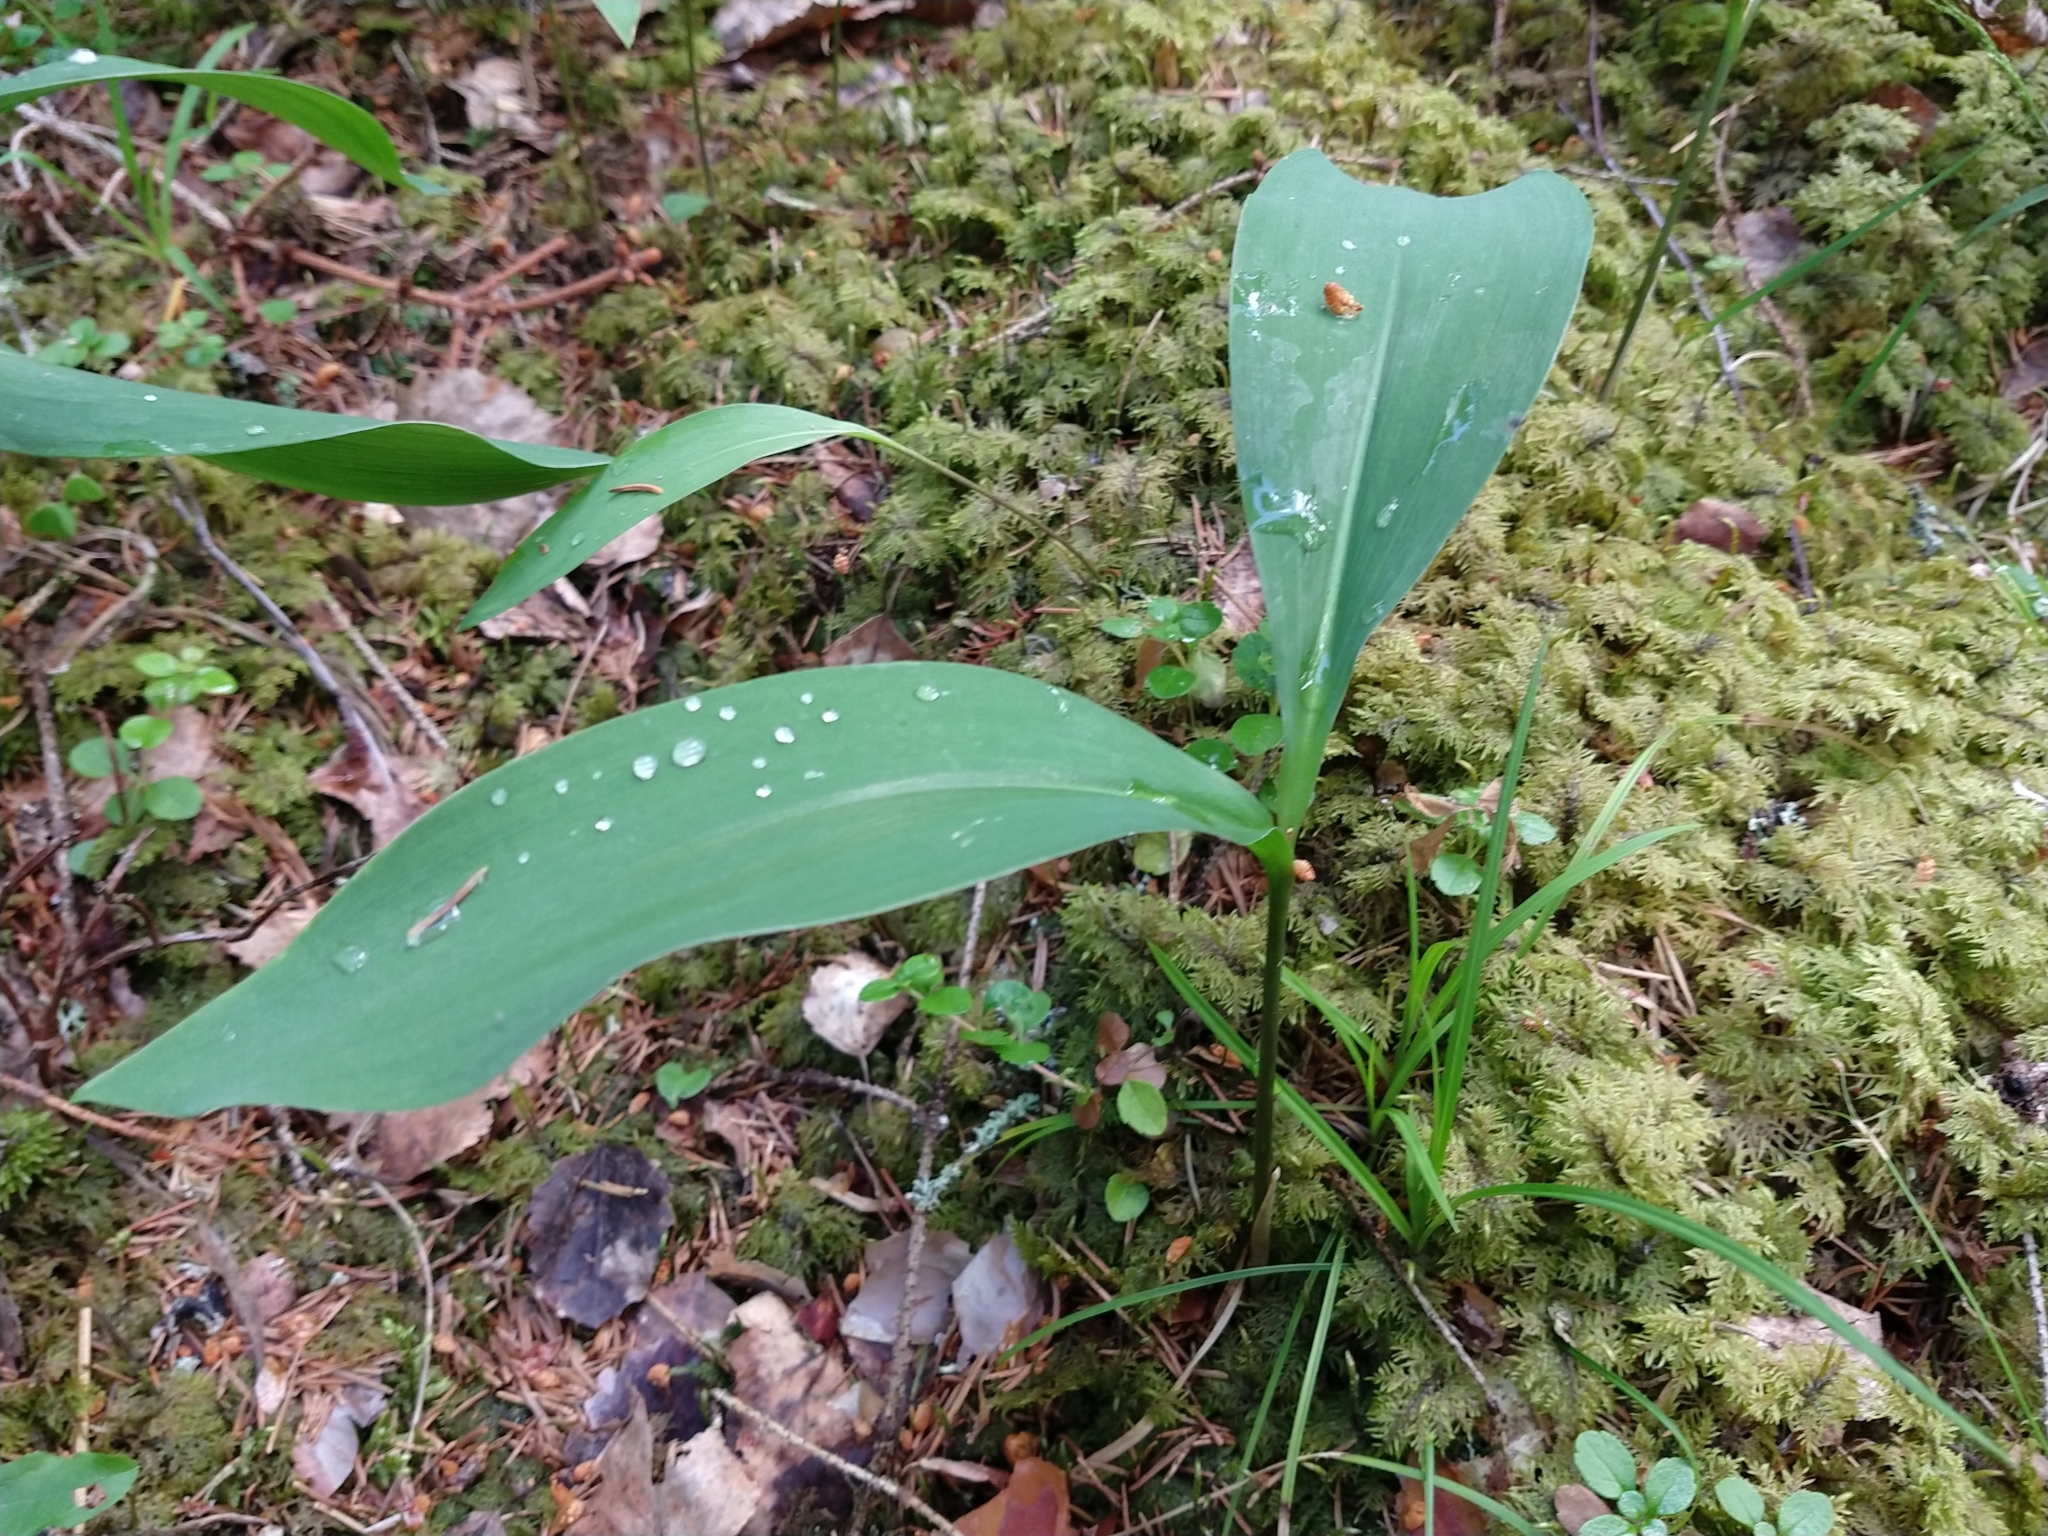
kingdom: Plantae
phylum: Tracheophyta
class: Liliopsida
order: Asparagales
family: Asparagaceae
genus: Convallaria
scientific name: Convallaria majalis
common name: Lily-of-the-valley
